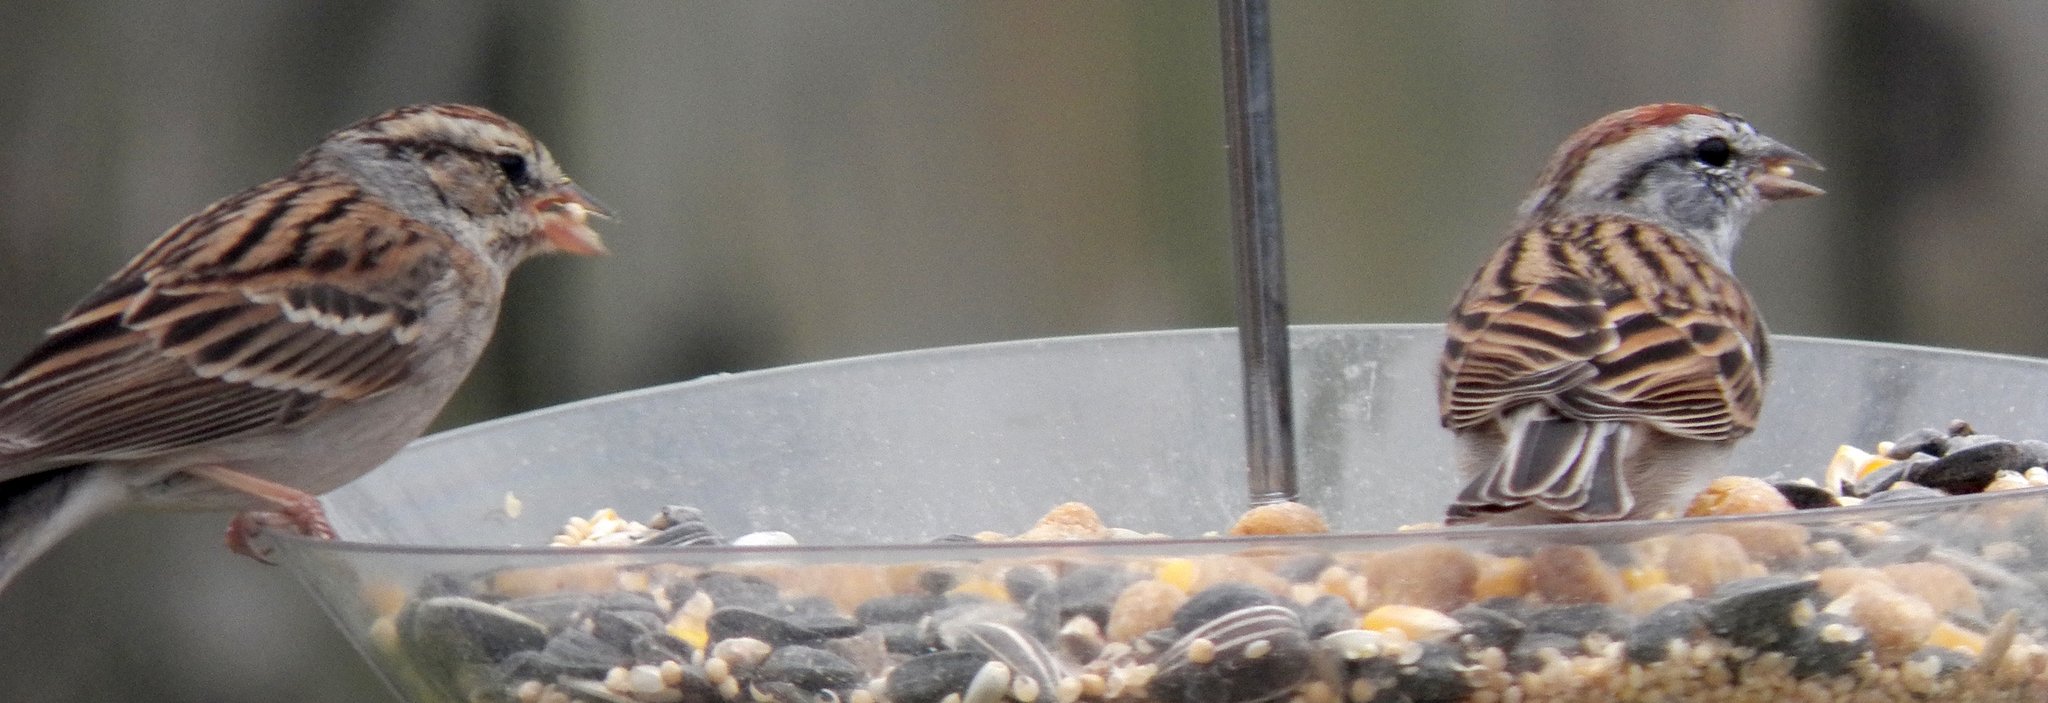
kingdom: Animalia
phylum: Chordata
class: Aves
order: Passeriformes
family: Passerellidae
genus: Spizella
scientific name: Spizella passerina
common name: Chipping sparrow
